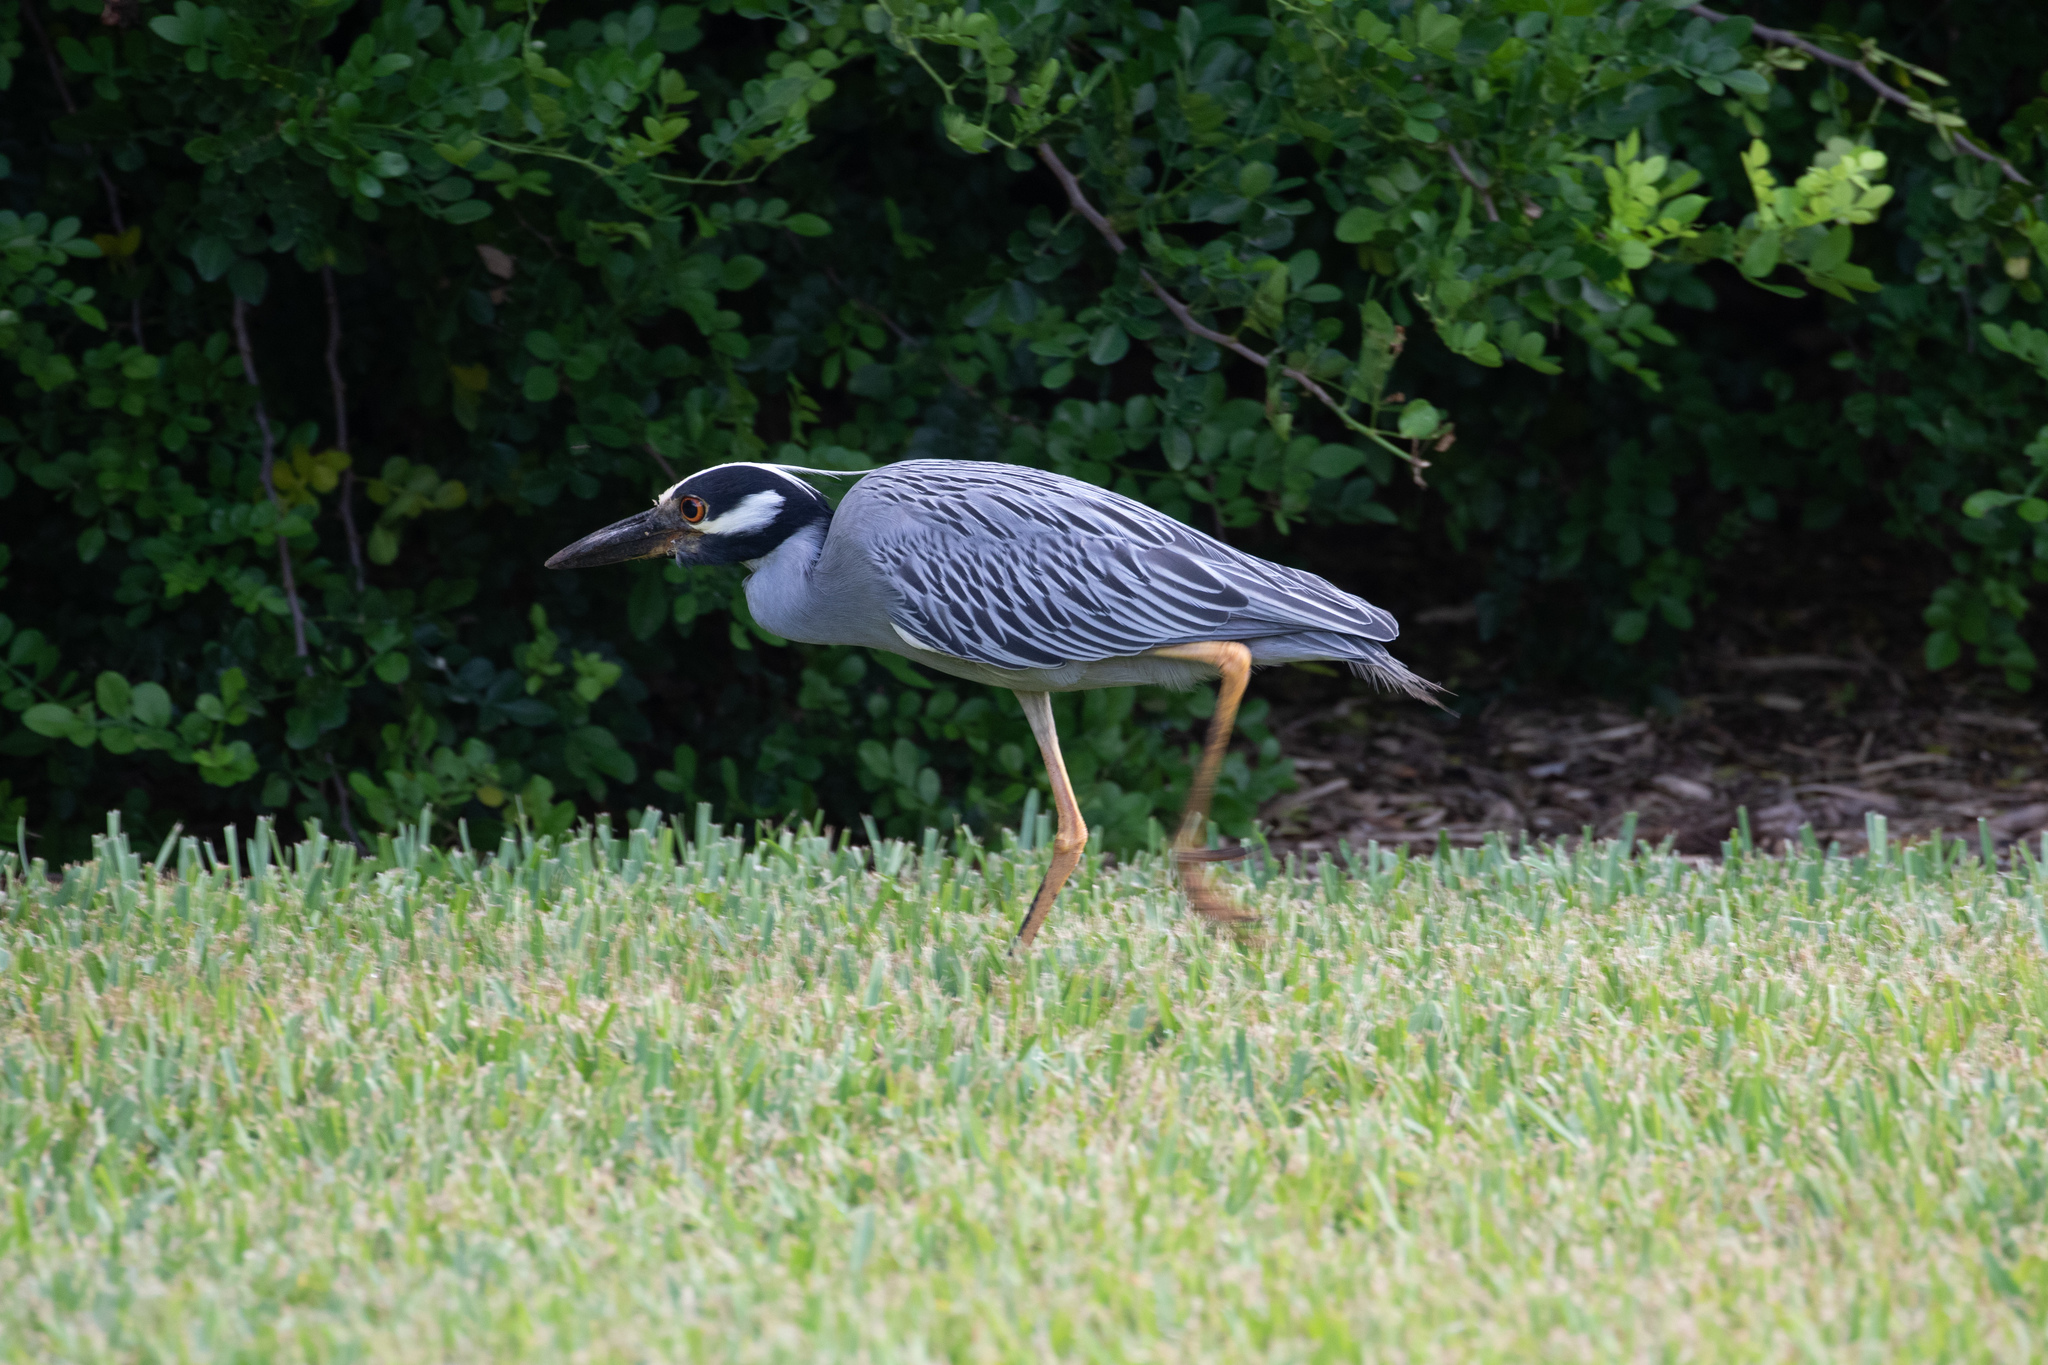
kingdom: Animalia
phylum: Chordata
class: Aves
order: Pelecaniformes
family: Ardeidae
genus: Nyctanassa
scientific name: Nyctanassa violacea
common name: Yellow-crowned night heron
